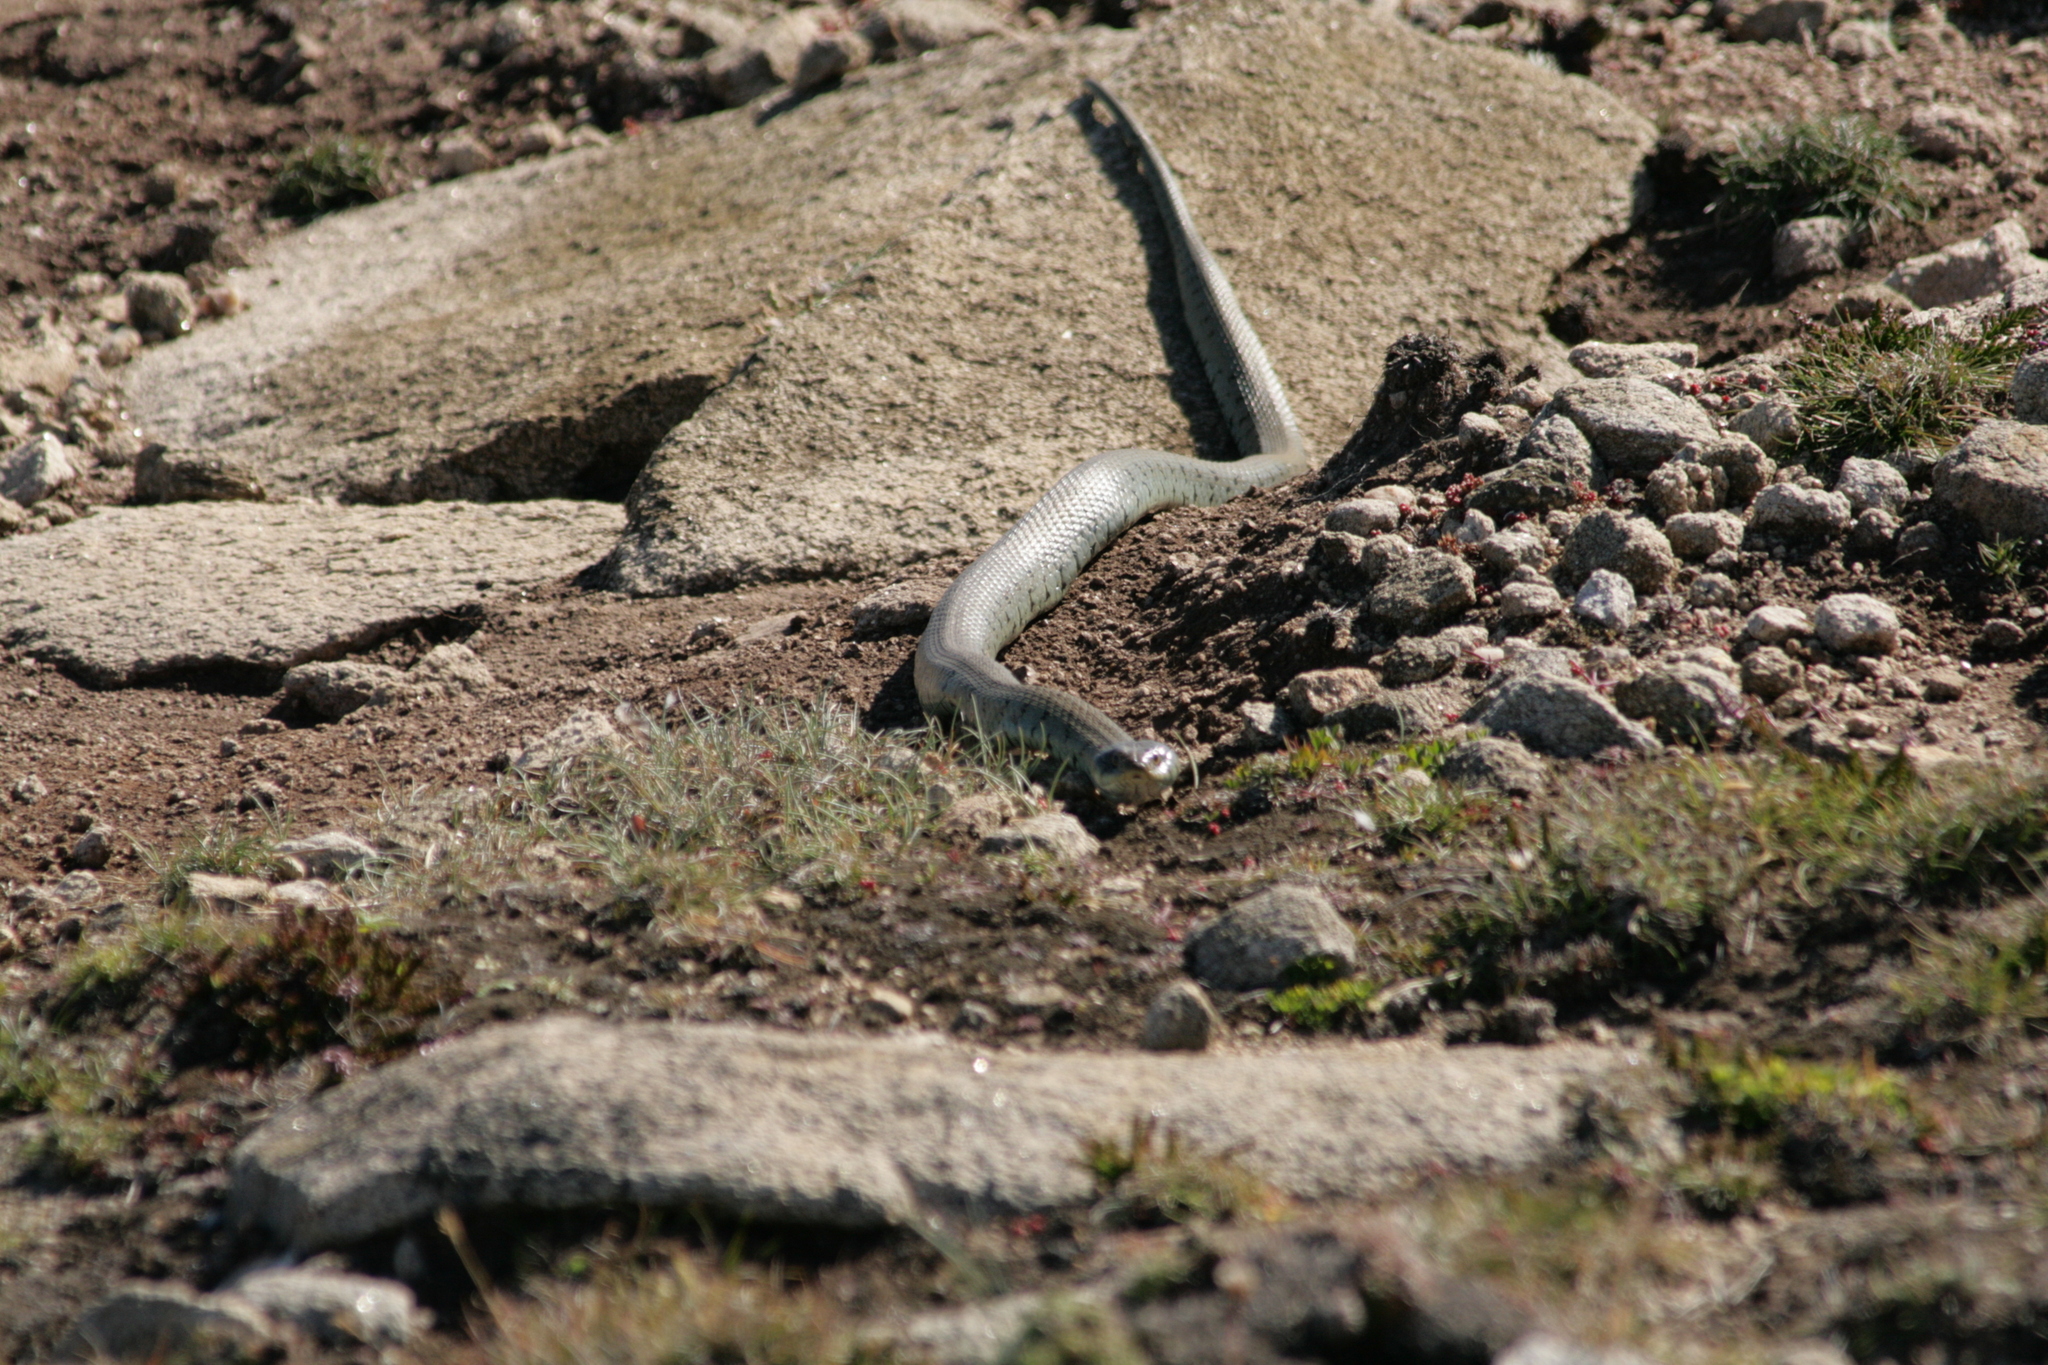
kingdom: Animalia
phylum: Chordata
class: Squamata
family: Colubridae
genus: Natrix
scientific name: Natrix helvetica
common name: Banded grass snake
